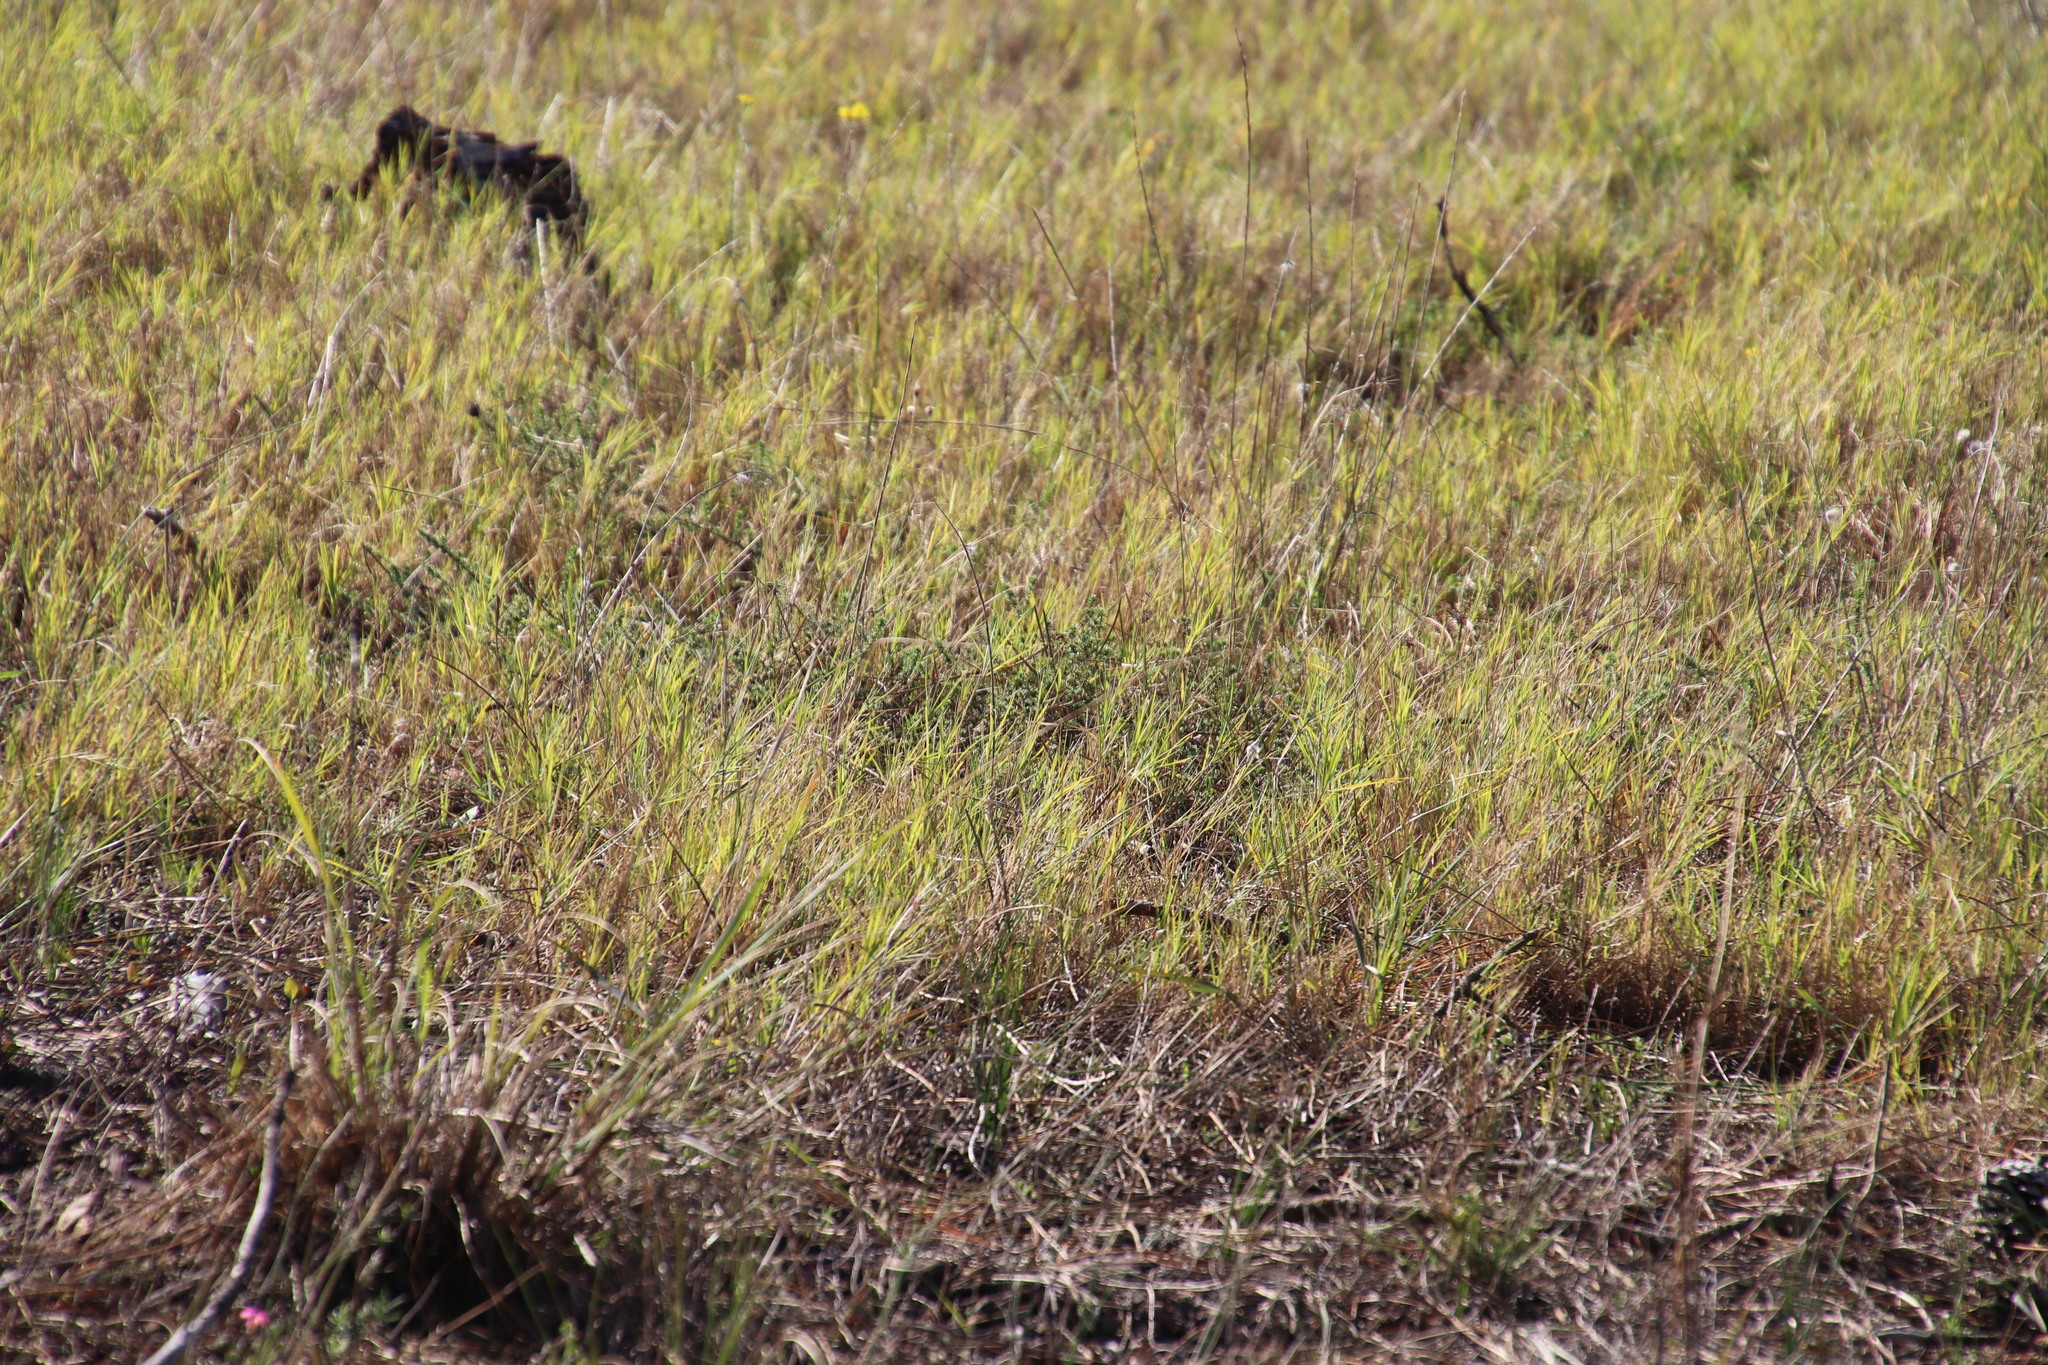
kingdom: Plantae
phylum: Tracheophyta
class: Liliopsida
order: Poales
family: Poaceae
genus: Cynodon
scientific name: Cynodon dactylon
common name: Bermuda grass
